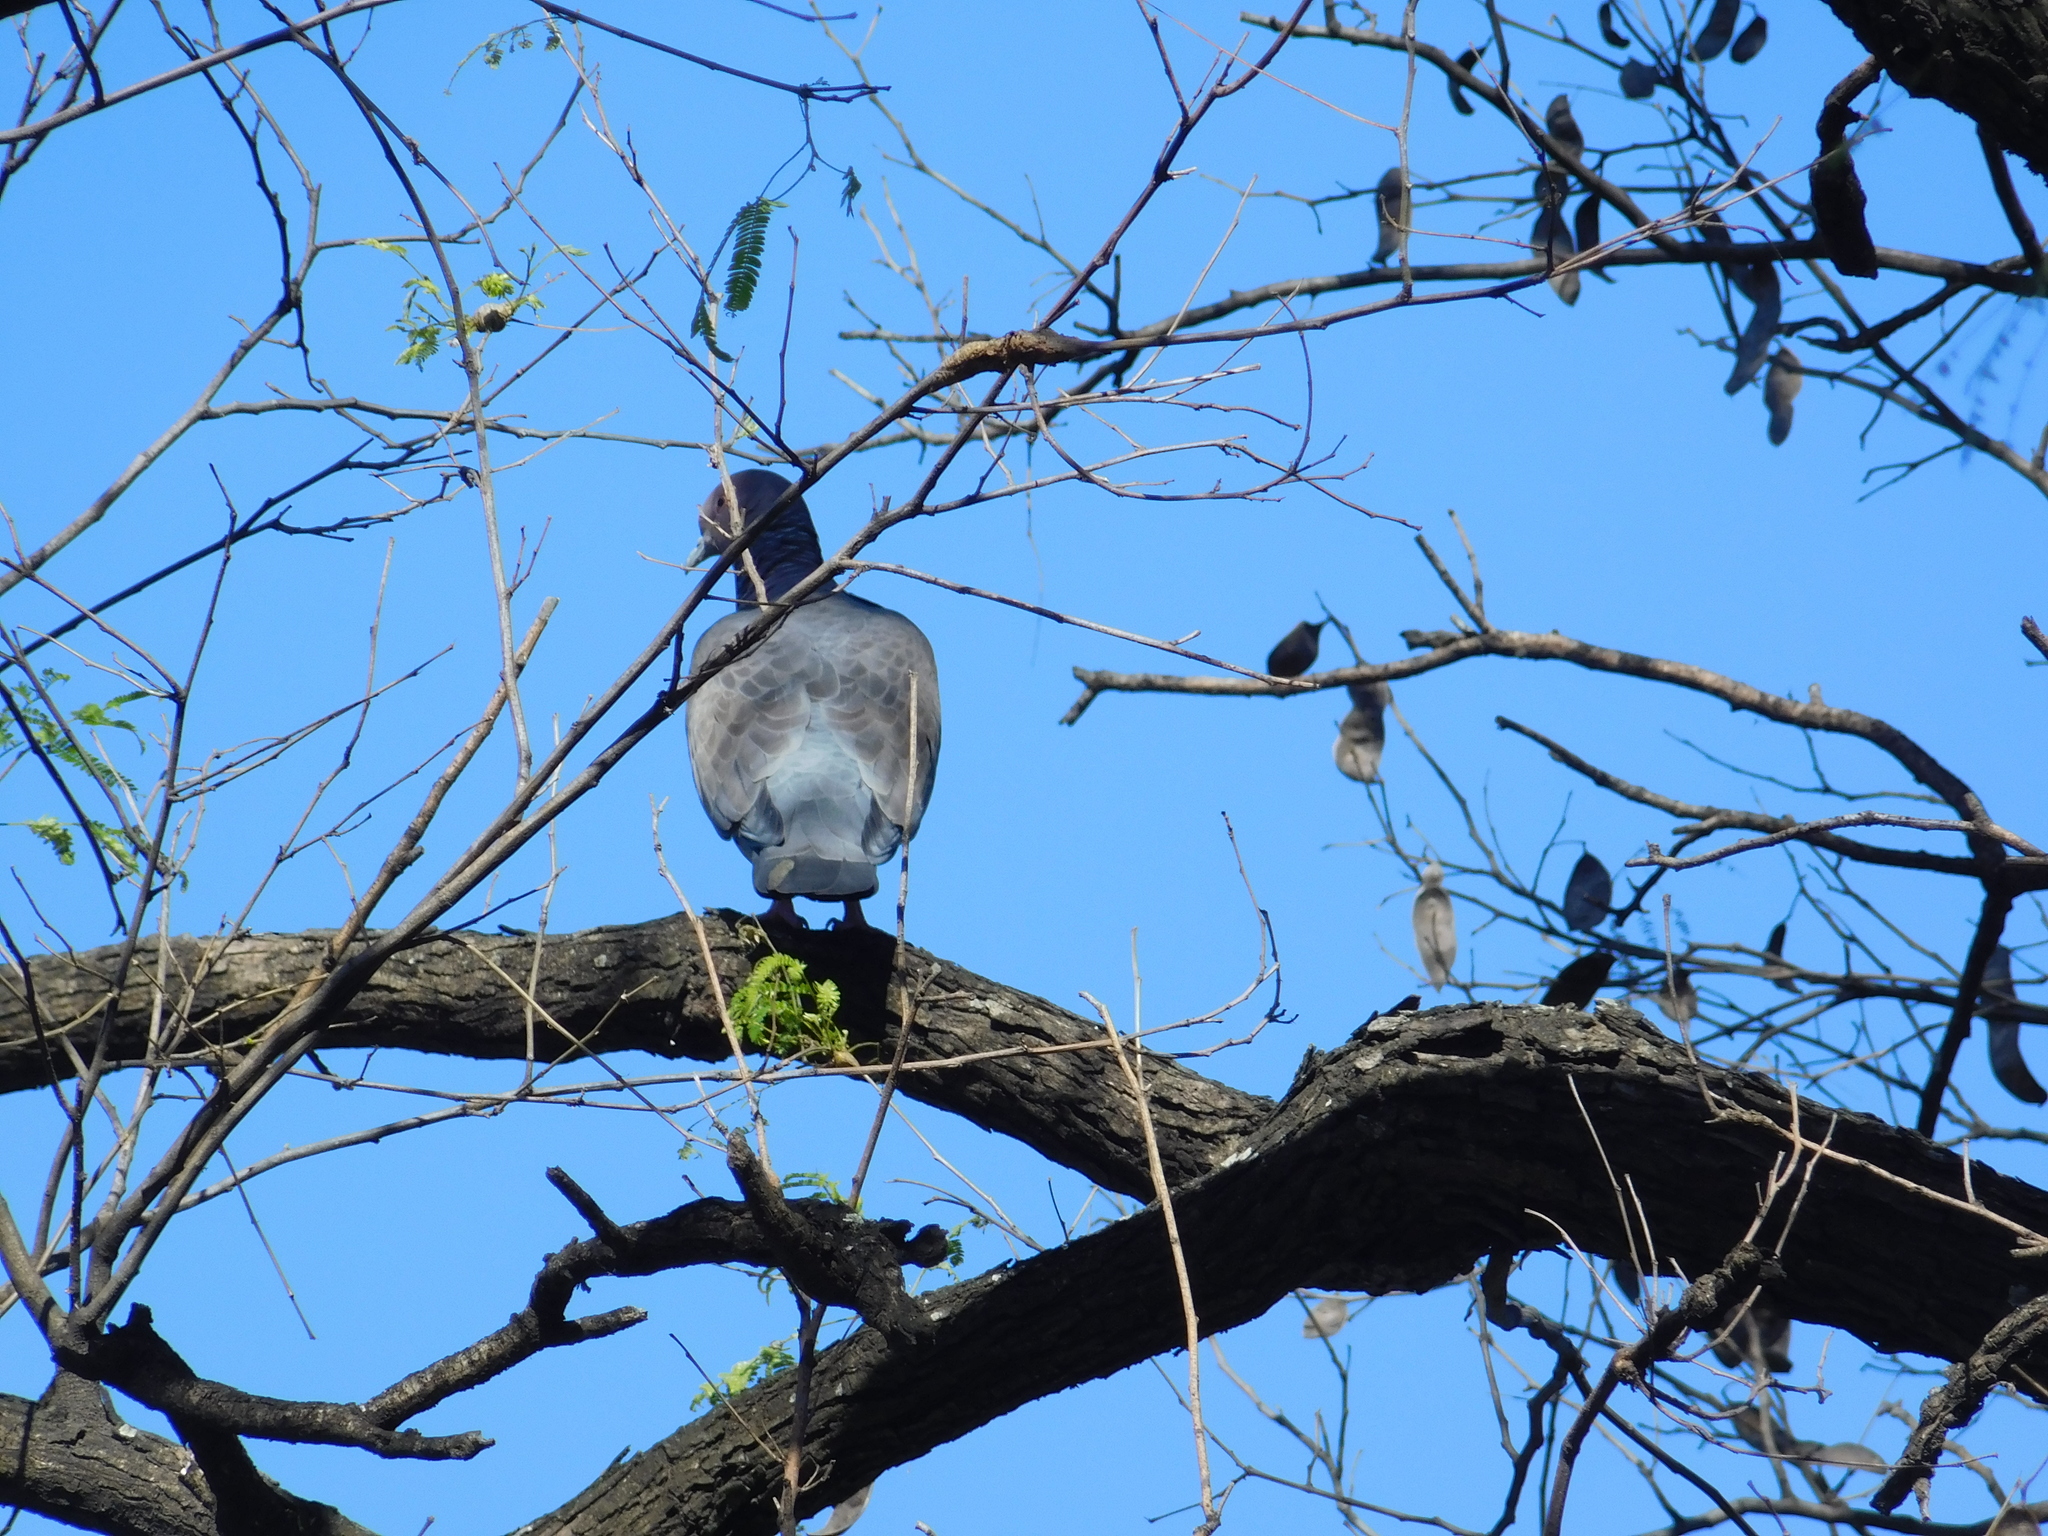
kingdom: Animalia
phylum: Chordata
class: Aves
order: Columbiformes
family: Columbidae
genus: Patagioenas
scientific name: Patagioenas picazuro
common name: Picazuro pigeon
